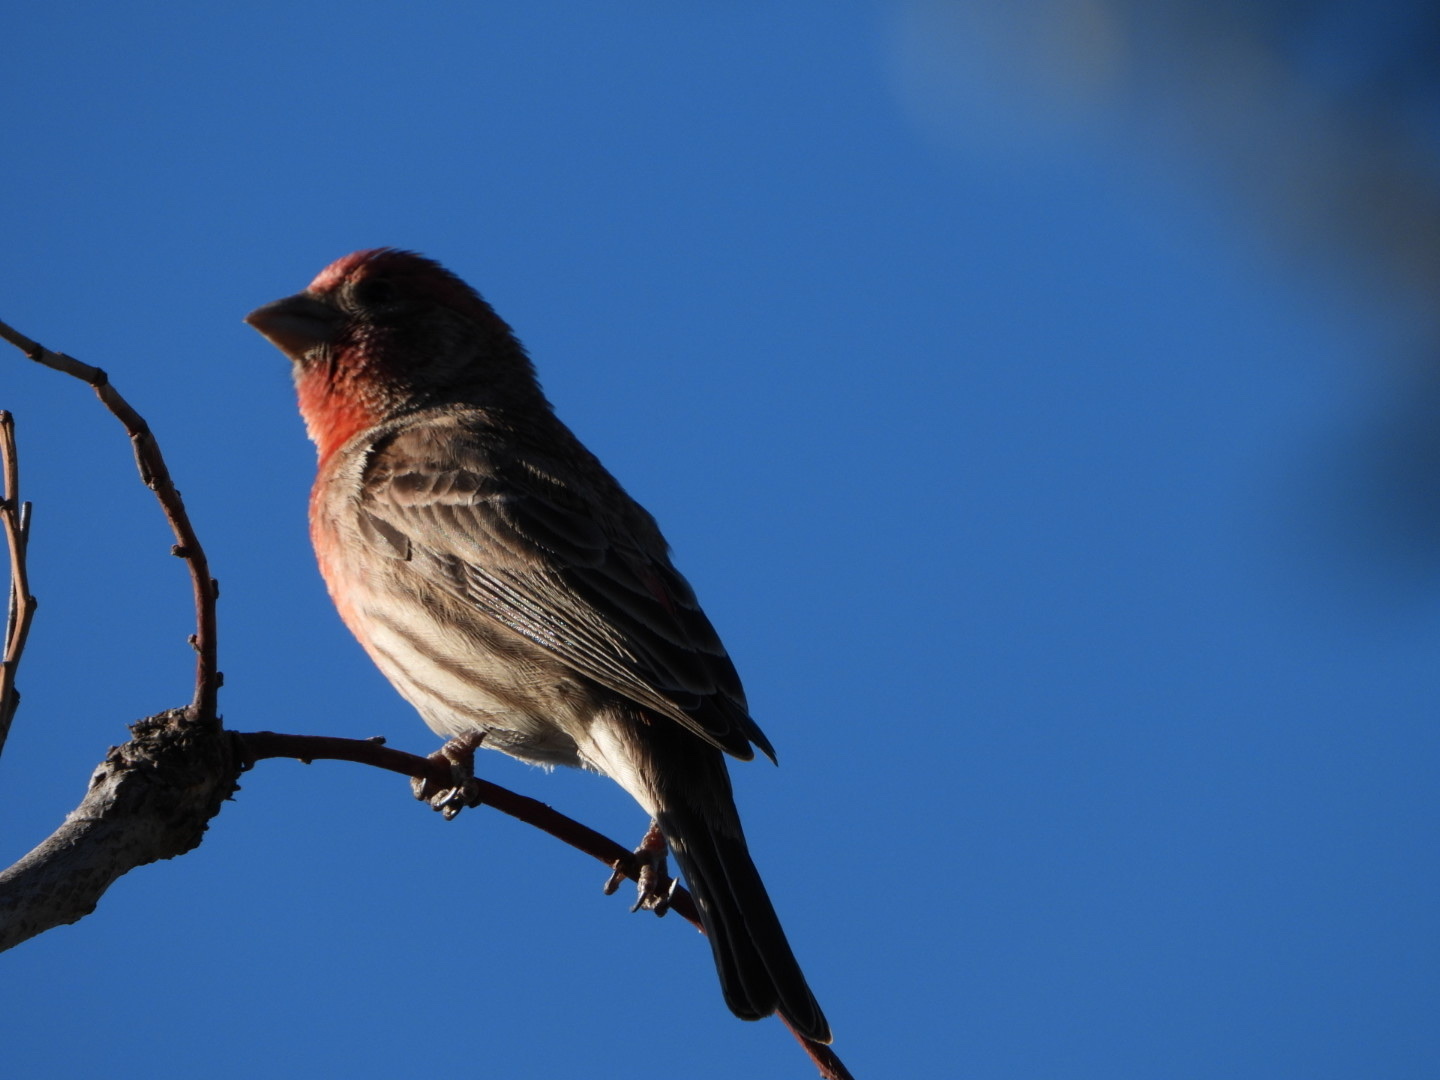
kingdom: Animalia
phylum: Chordata
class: Aves
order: Passeriformes
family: Fringillidae
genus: Haemorhous
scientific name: Haemorhous mexicanus
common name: House finch
